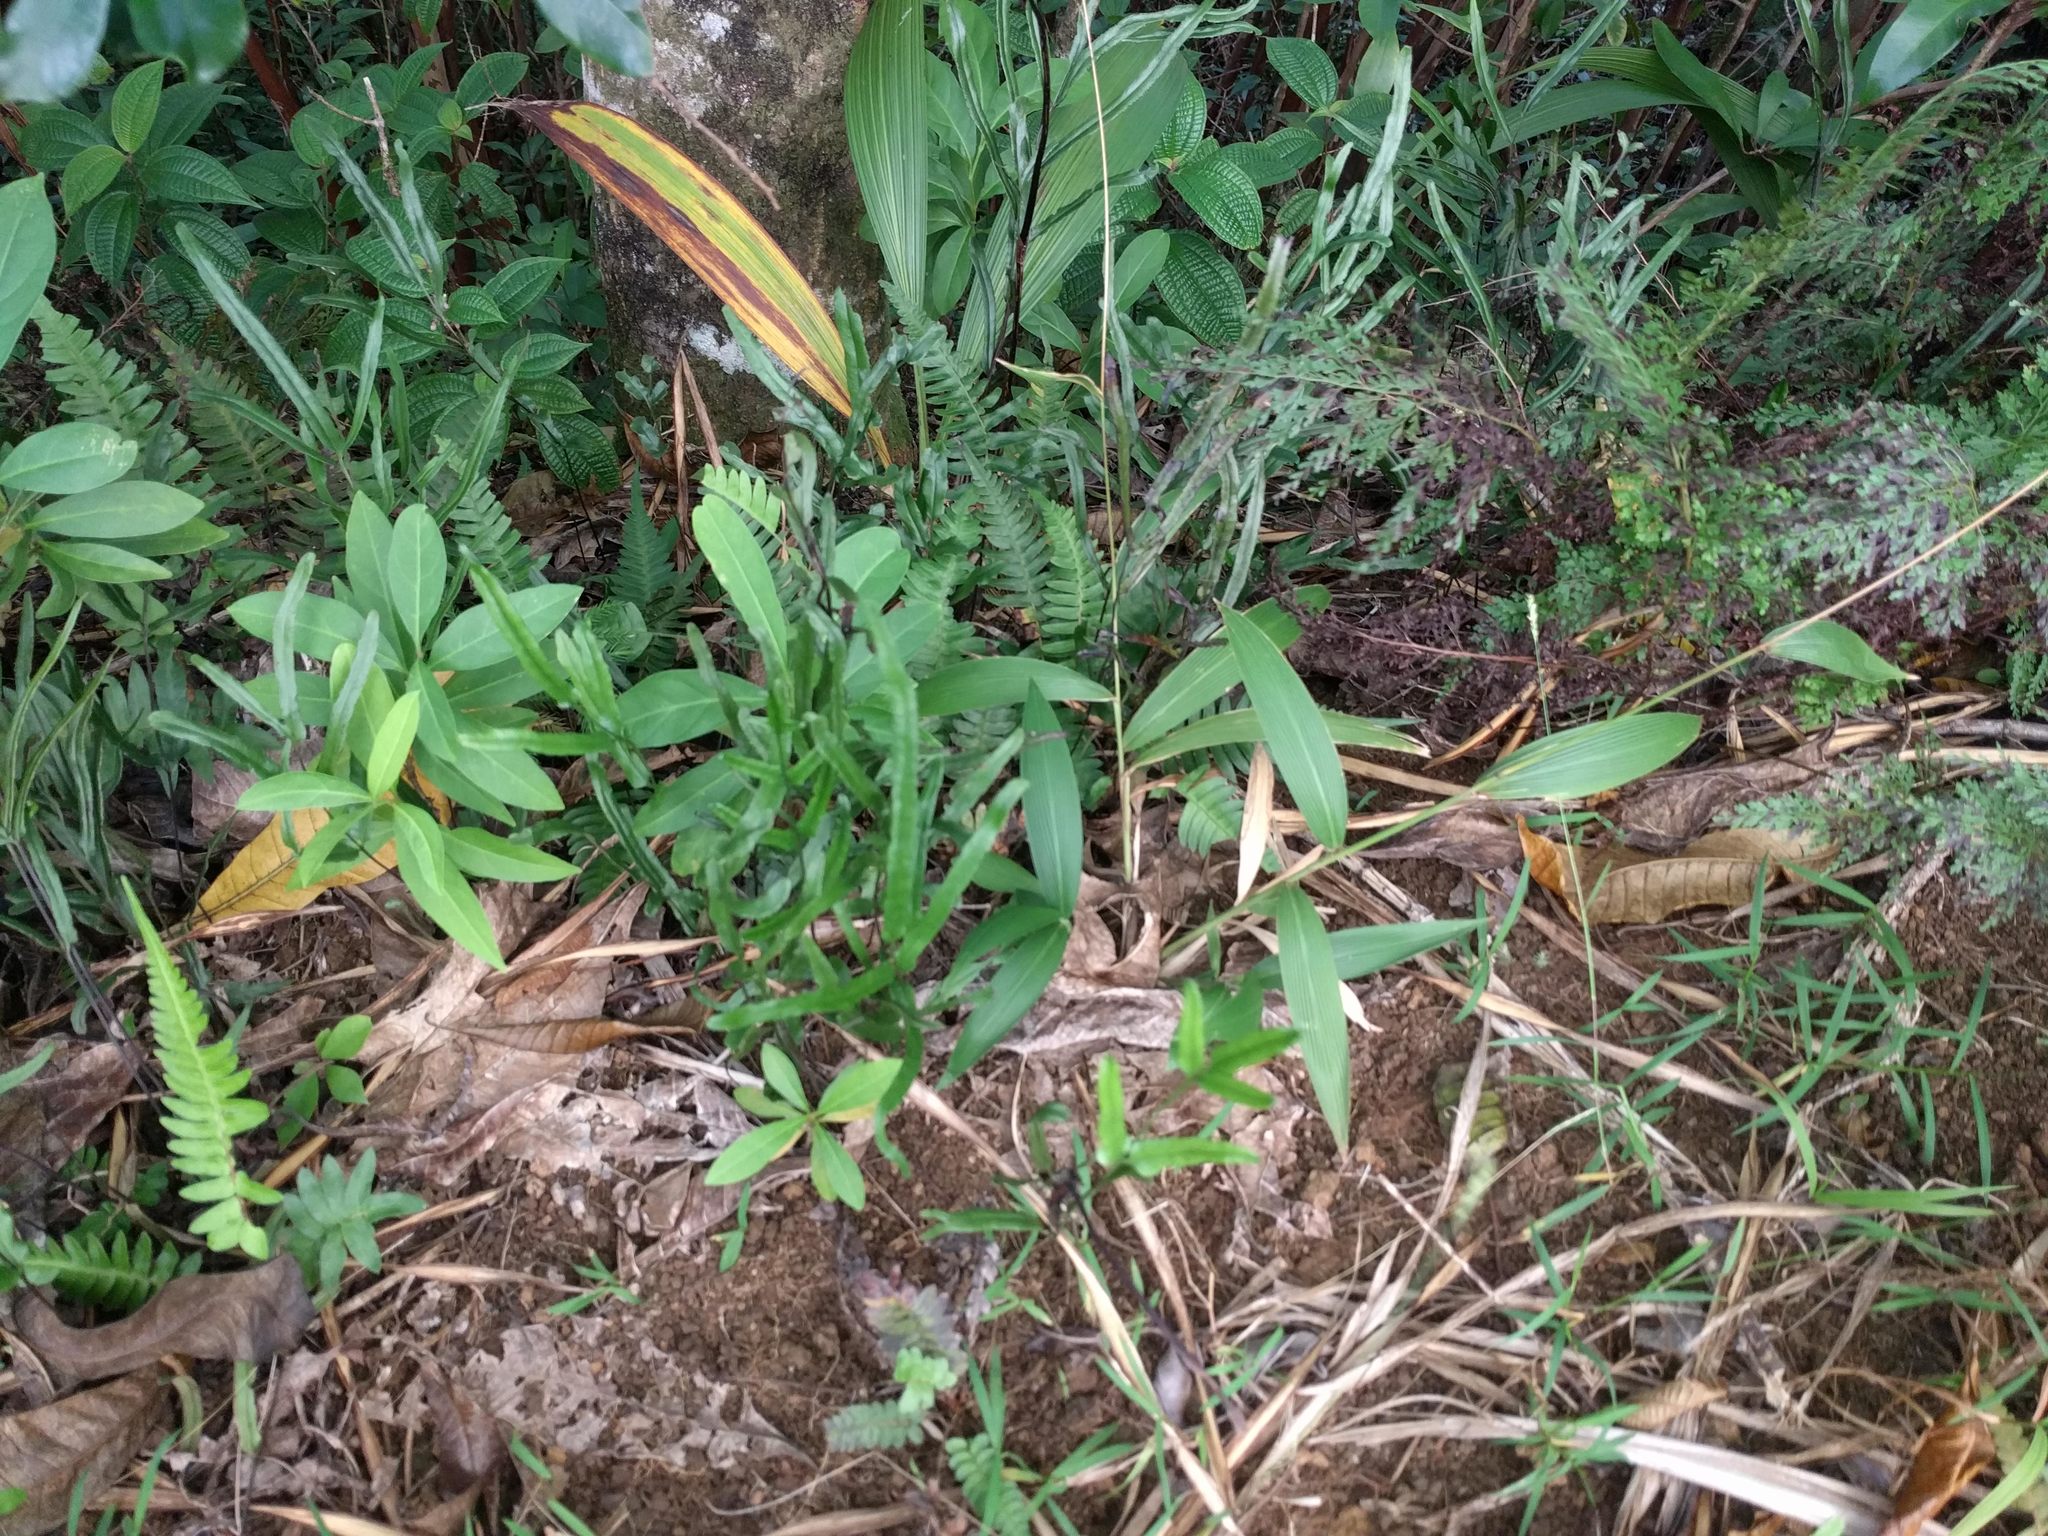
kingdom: Plantae
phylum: Tracheophyta
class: Liliopsida
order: Poales
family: Poaceae
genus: Setaria
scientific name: Setaria palmifolia
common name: Broadleaved bristlegrass
